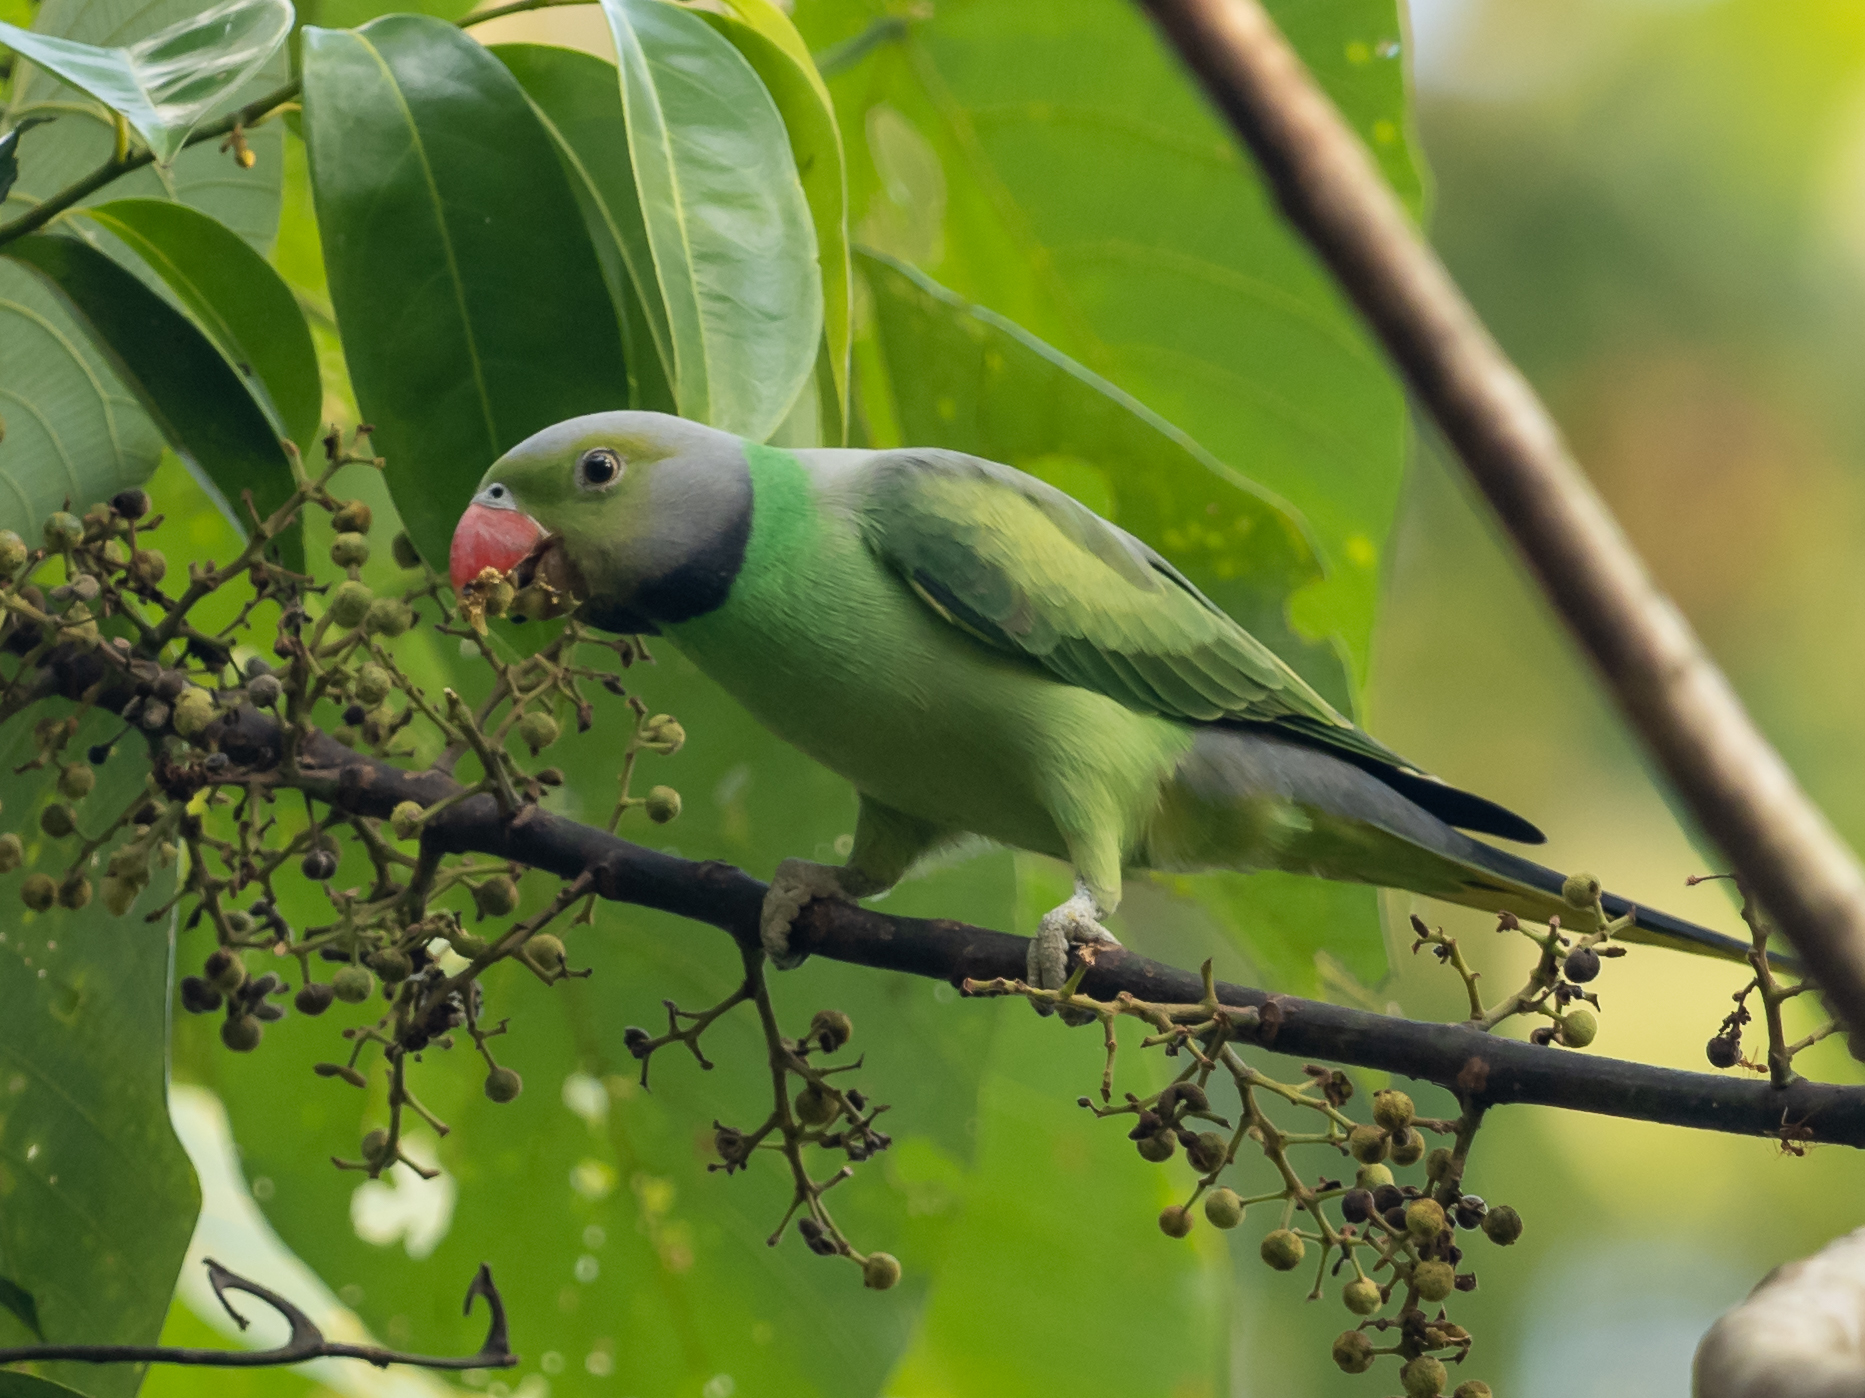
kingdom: Animalia
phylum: Chordata
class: Aves
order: Psittaciformes
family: Psittacidae
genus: Psittacula
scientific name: Psittacula calthrapae
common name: Layard's parakeet
